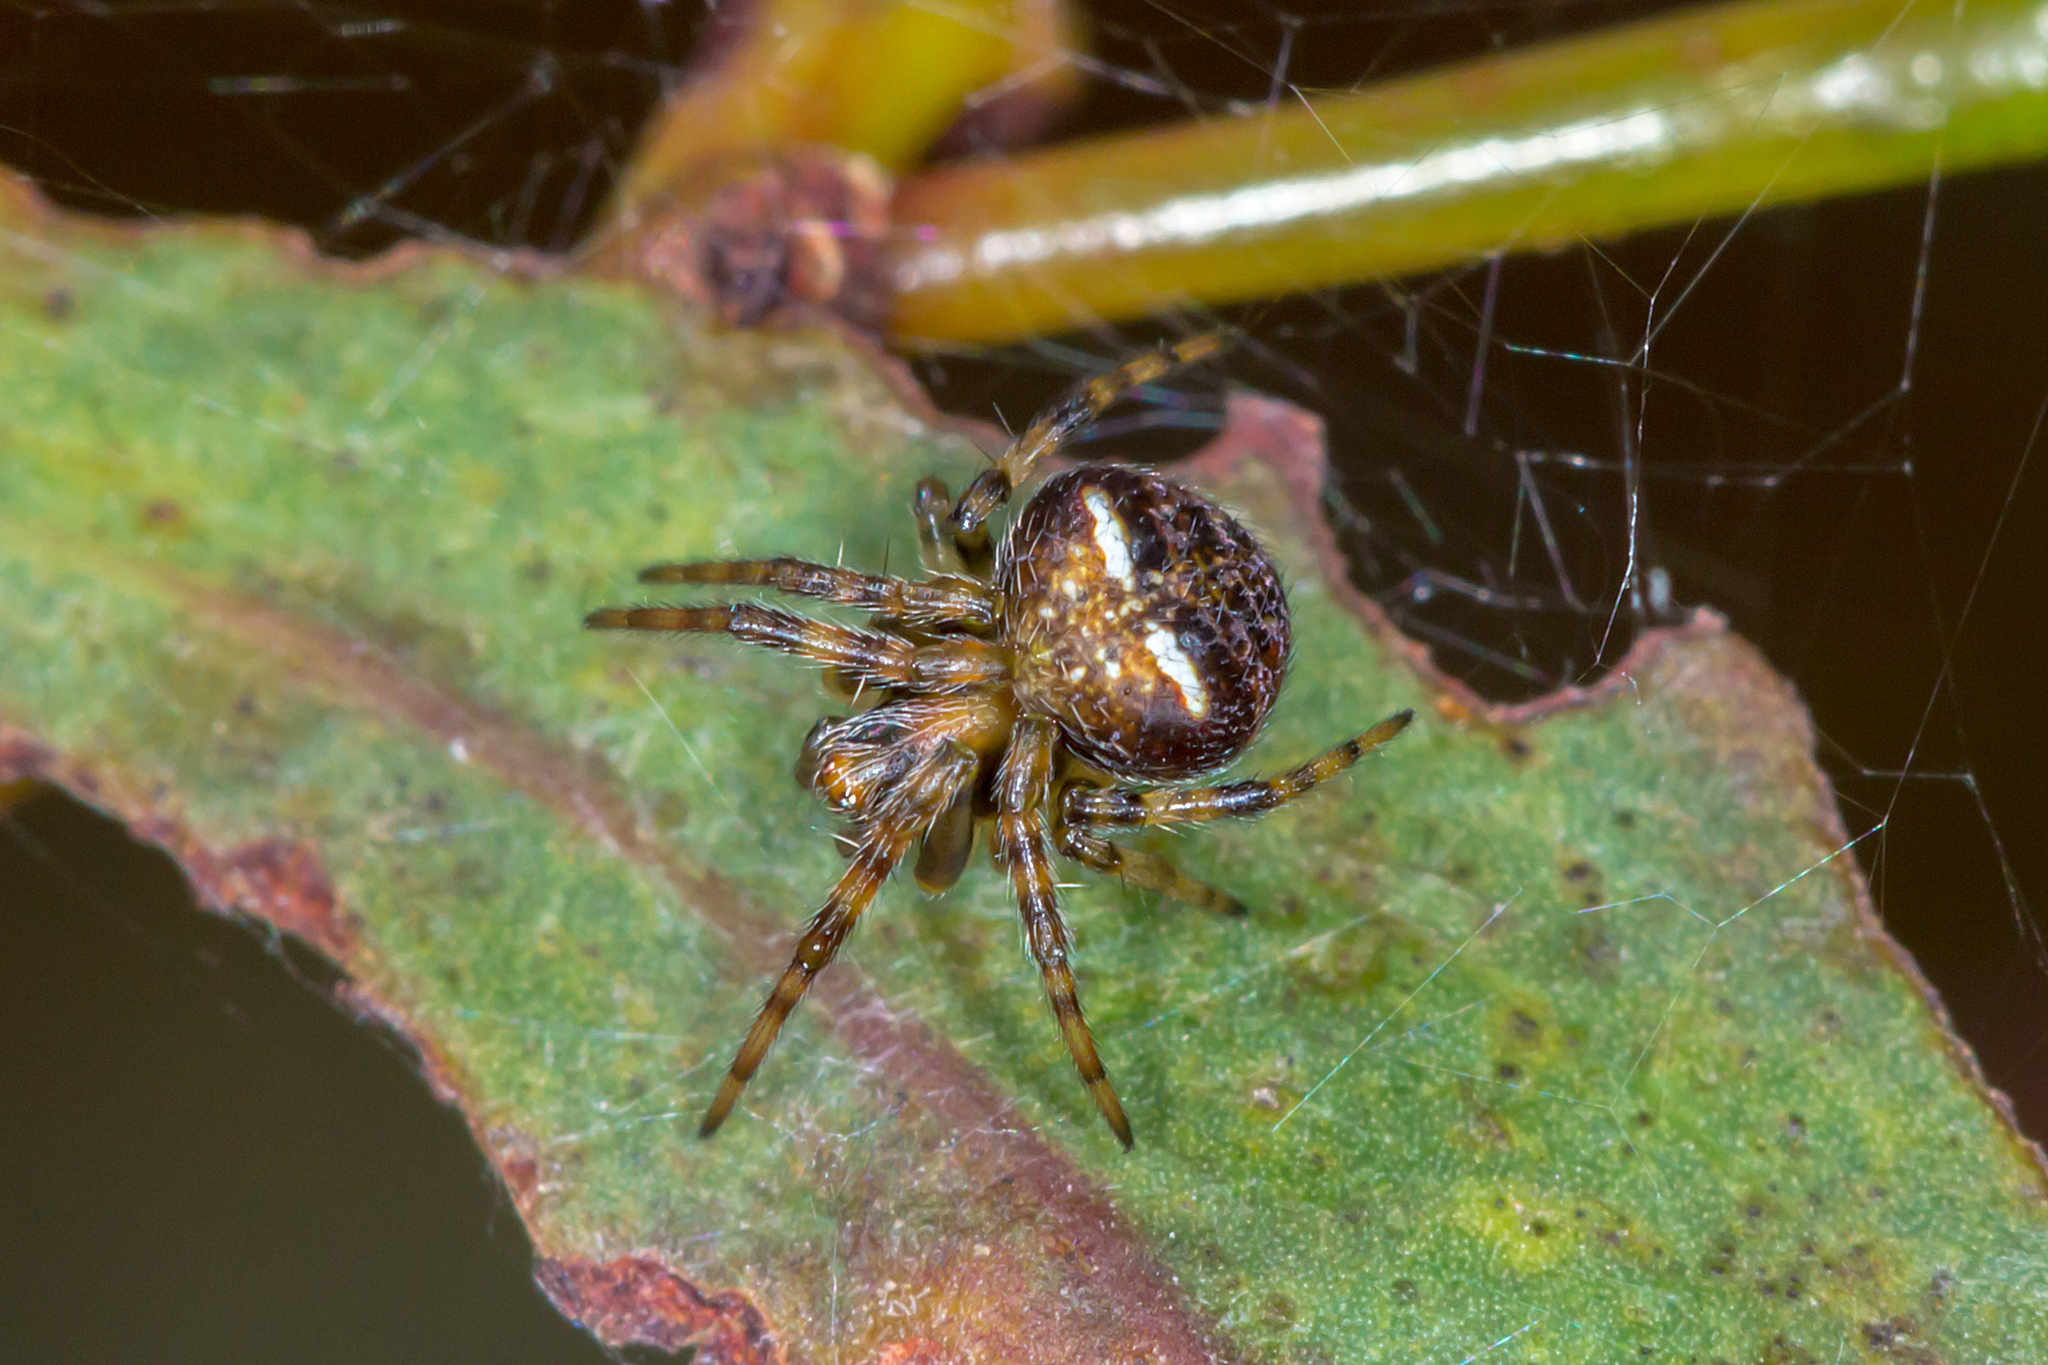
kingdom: Animalia
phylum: Arthropoda
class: Arachnida
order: Araneae
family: Araneidae
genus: Araneus
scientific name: Araneus albotriangulus
